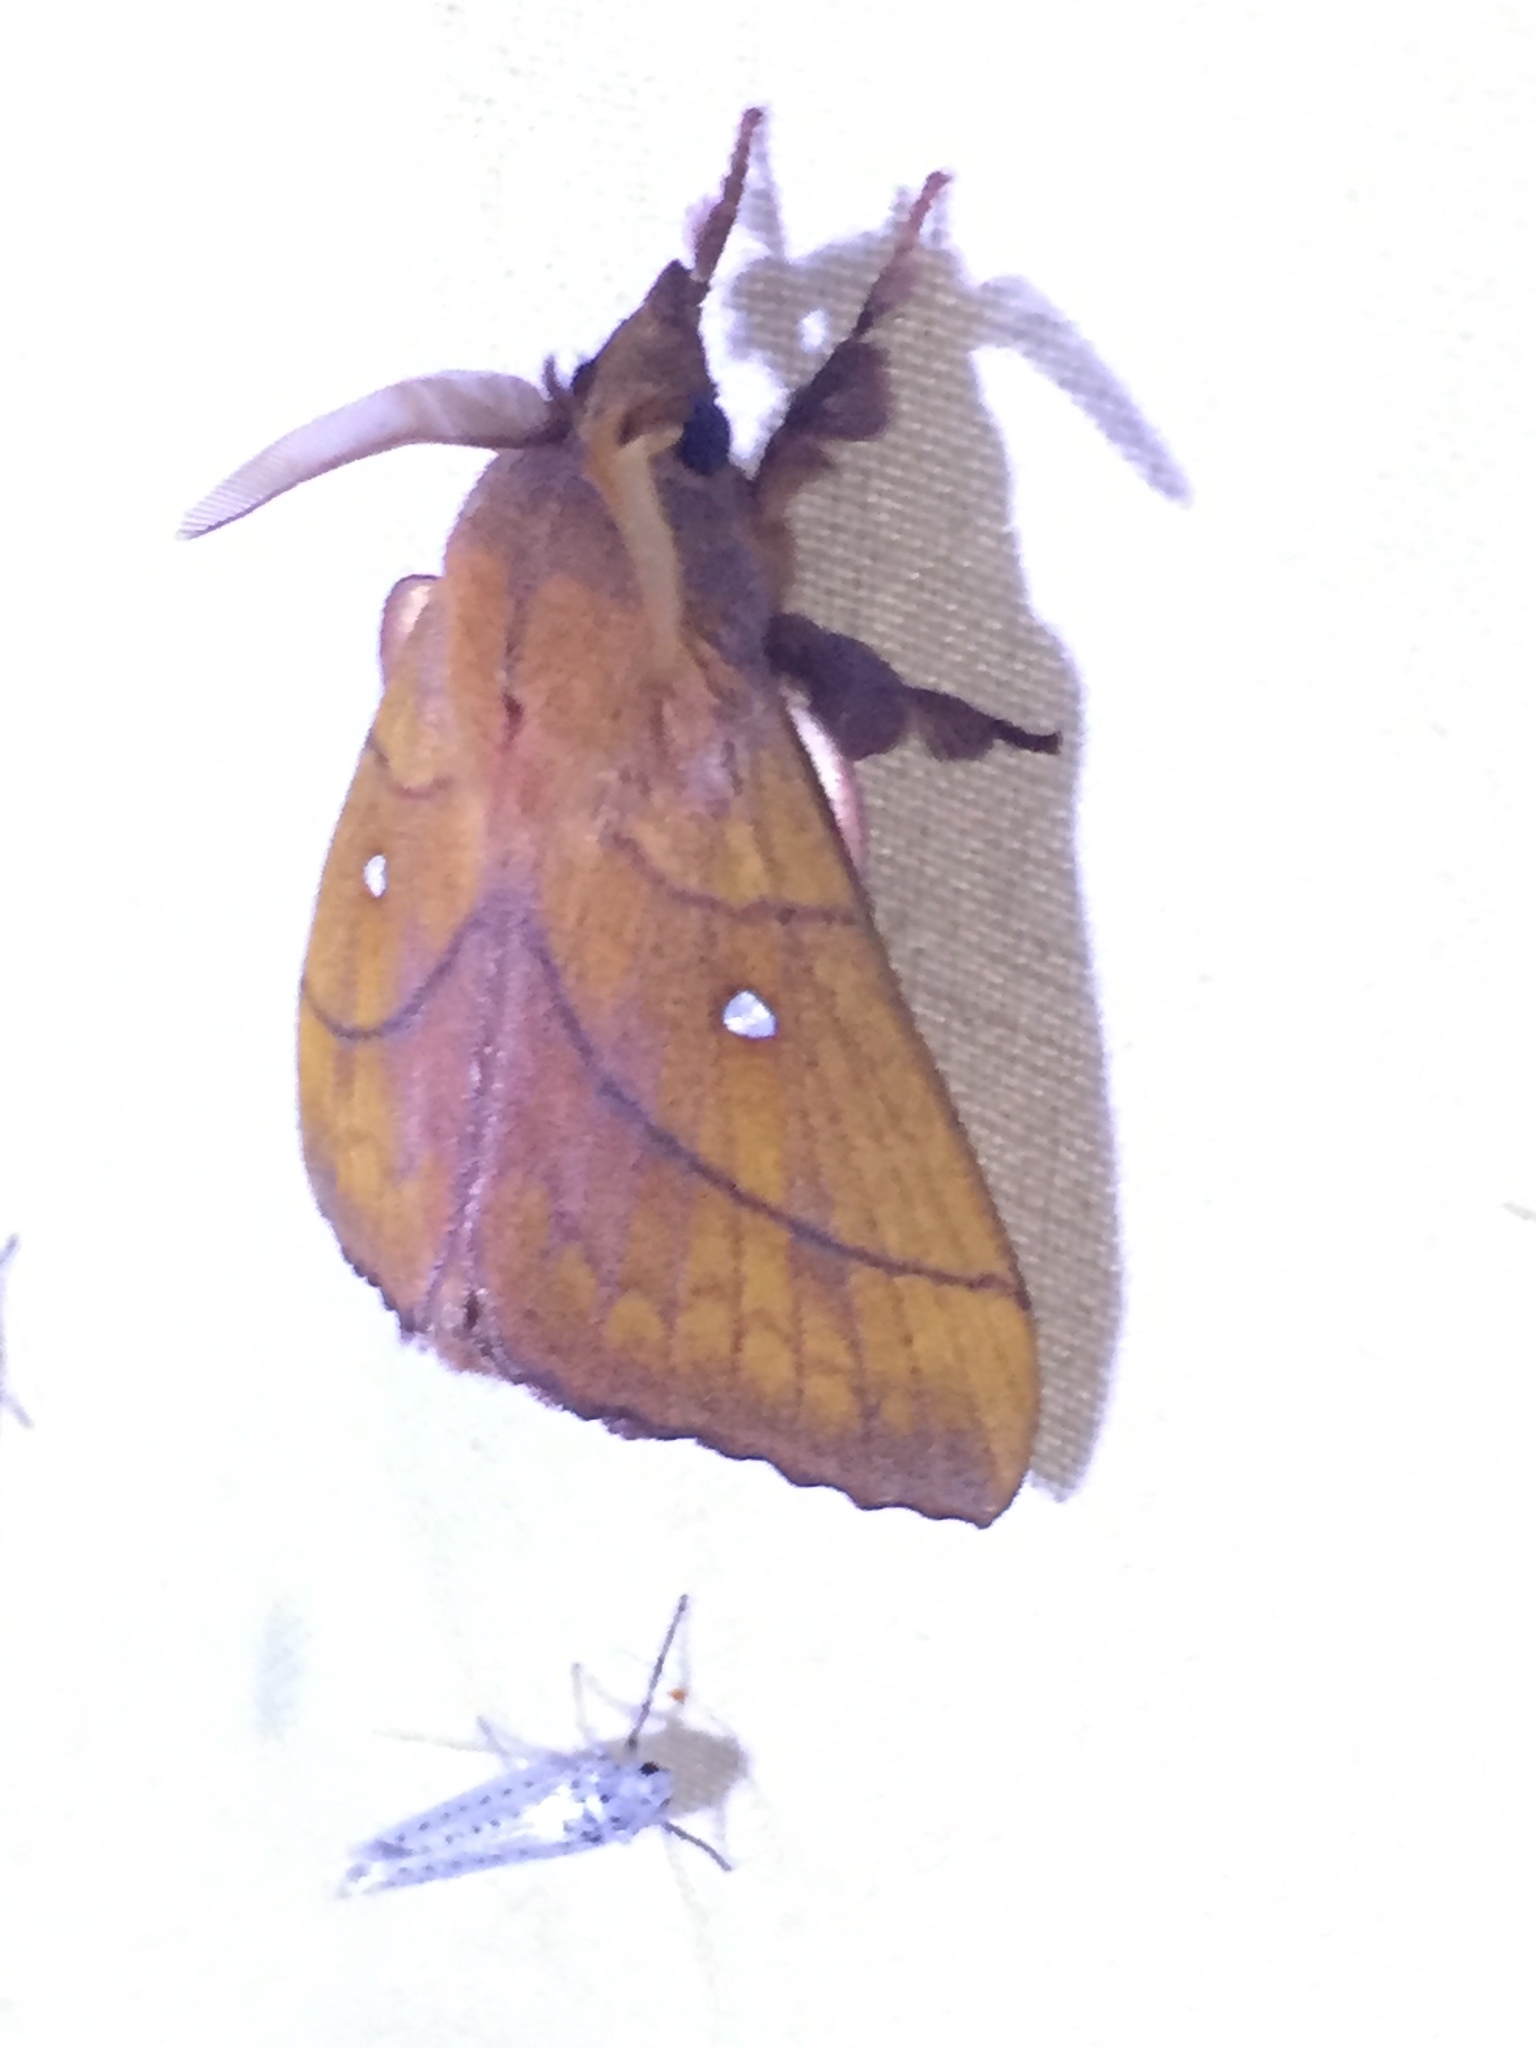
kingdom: Animalia
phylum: Arthropoda
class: Insecta
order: Lepidoptera
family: Lasiocampidae
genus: Odonestis
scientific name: Odonestis pruni
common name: Plum lappet
